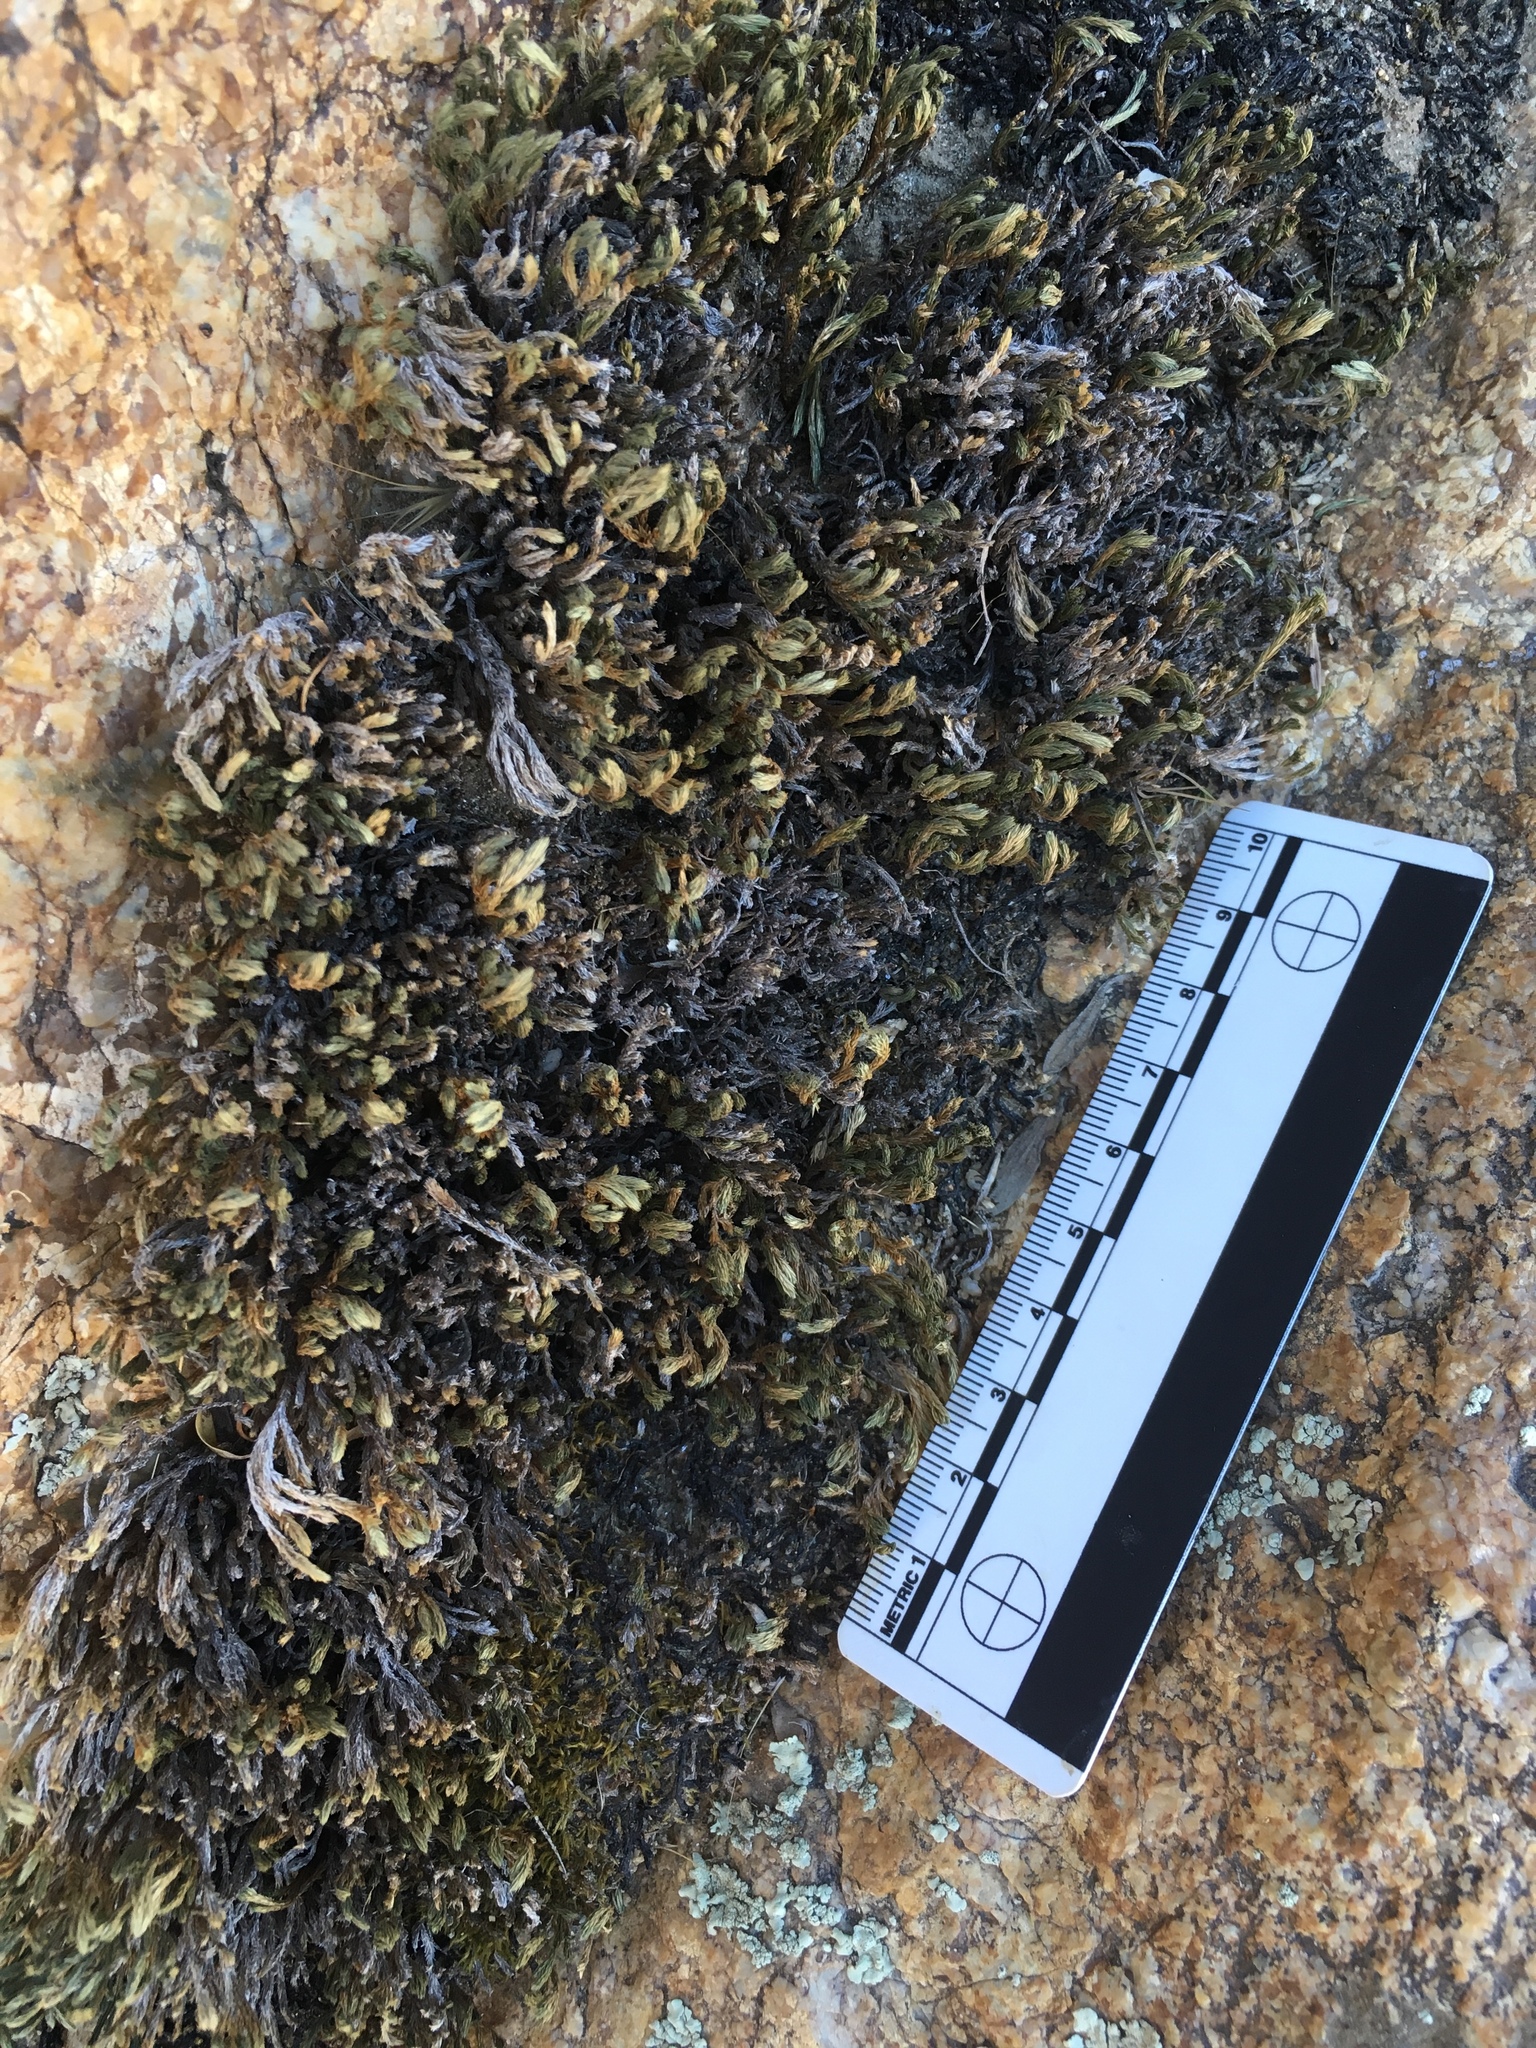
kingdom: Plantae
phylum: Tracheophyta
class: Lycopodiopsida
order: Selaginellales
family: Selaginellaceae
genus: Selaginella
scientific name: Selaginella bigelovii
